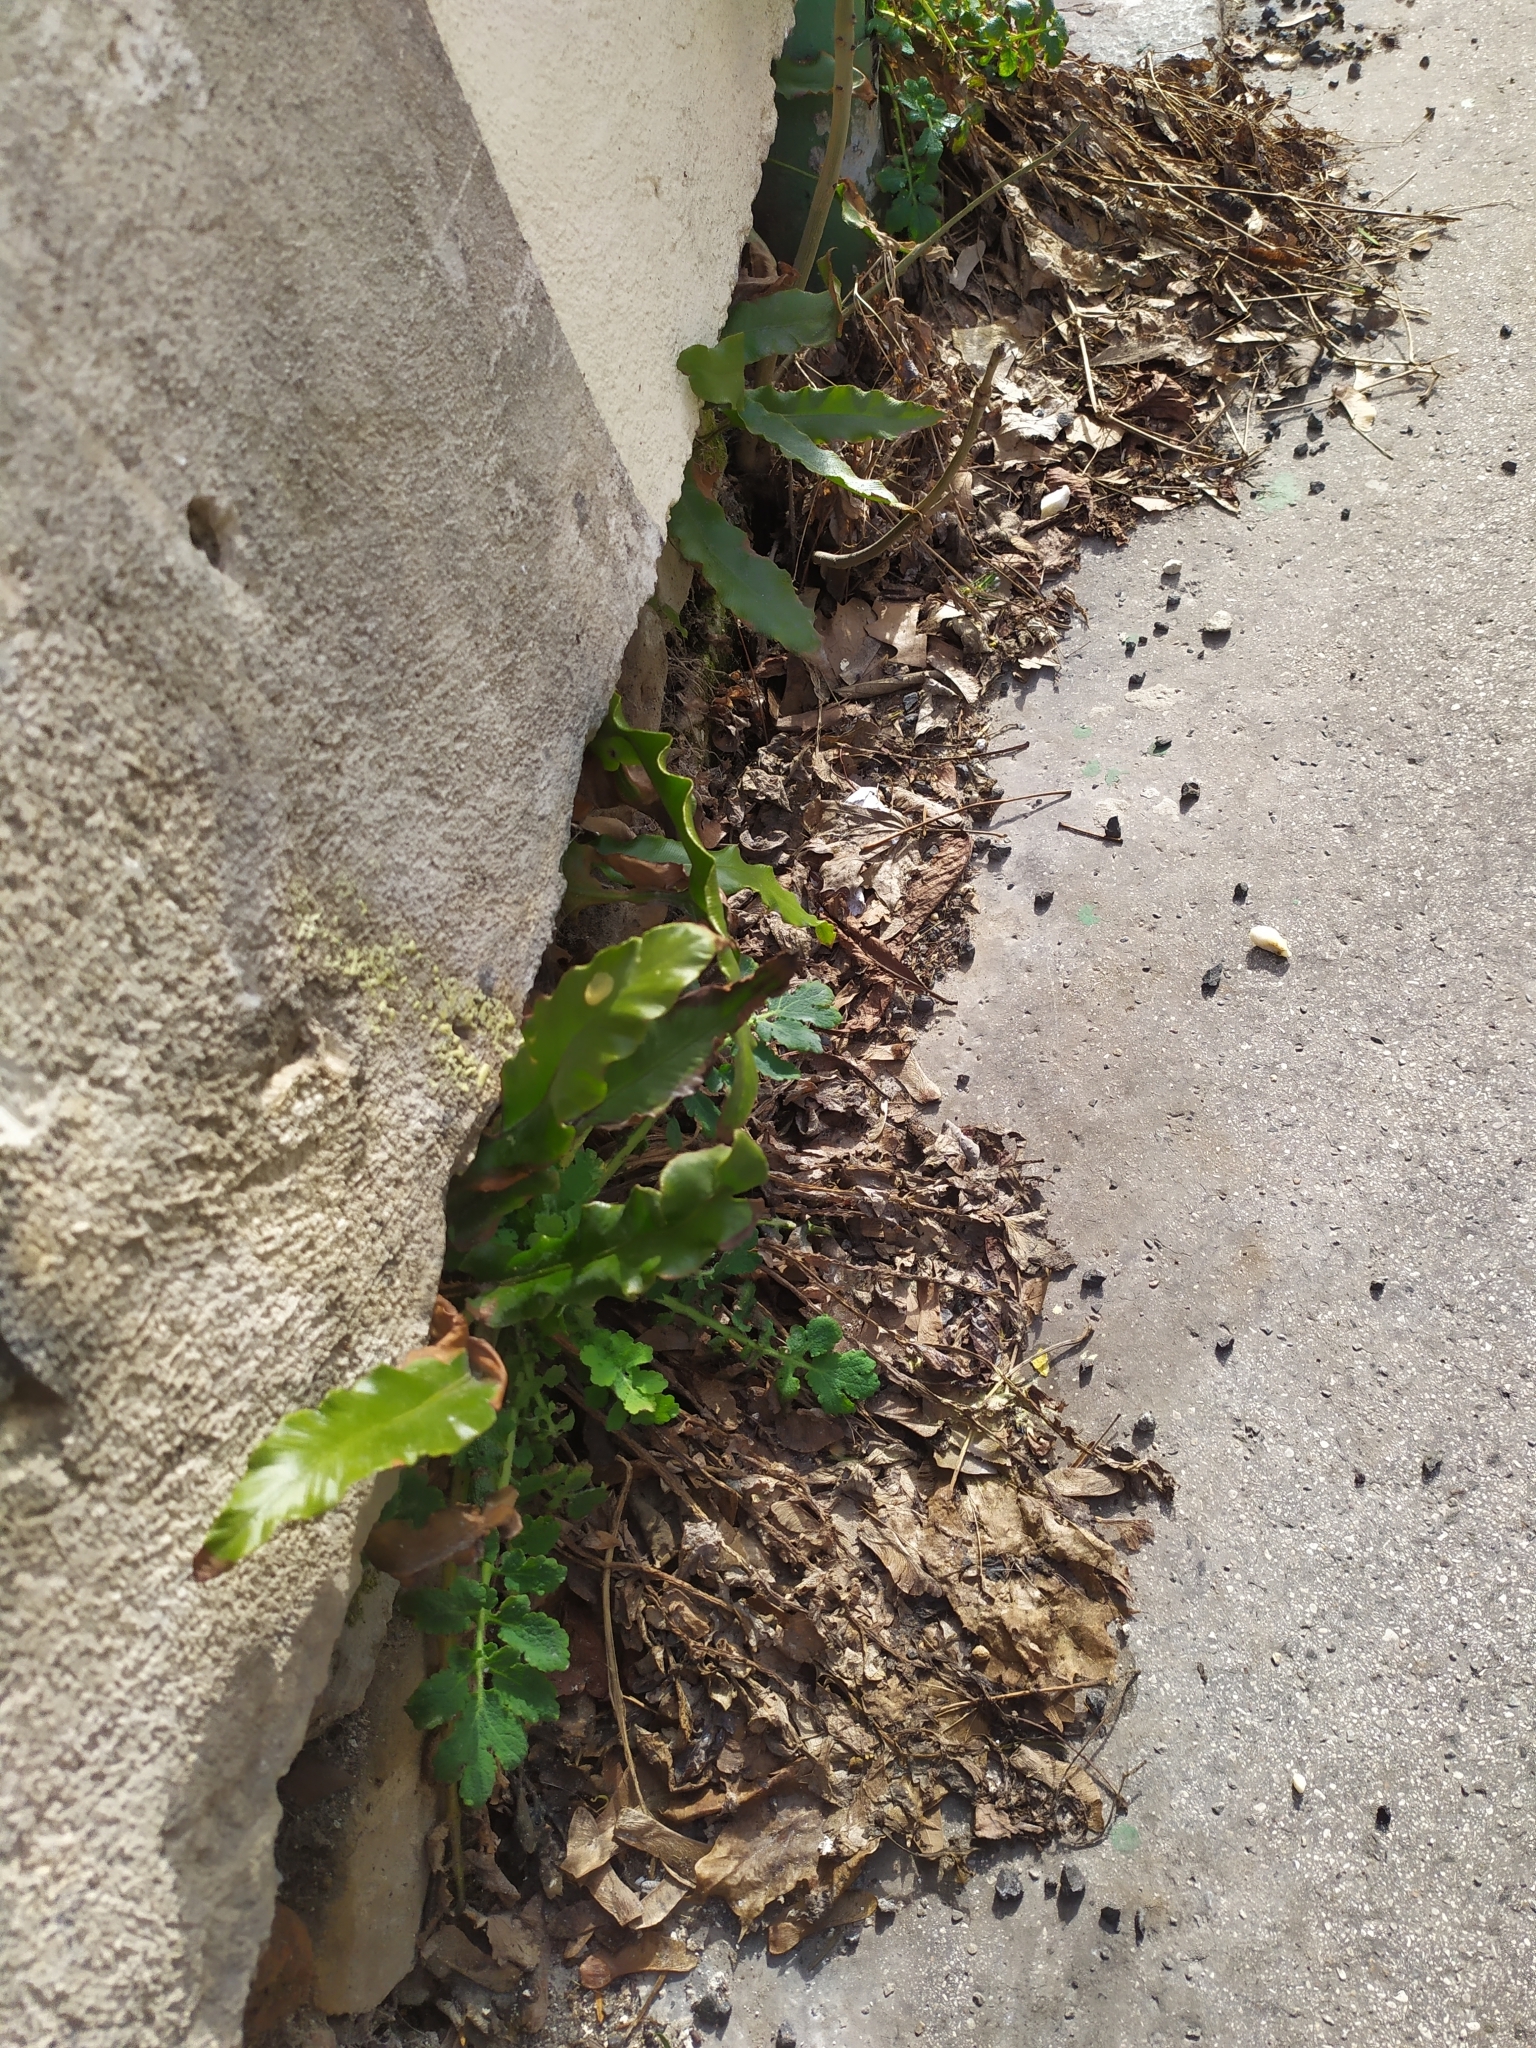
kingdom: Plantae
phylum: Tracheophyta
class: Polypodiopsida
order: Polypodiales
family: Aspleniaceae
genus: Asplenium
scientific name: Asplenium scolopendrium
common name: Hart's-tongue fern
